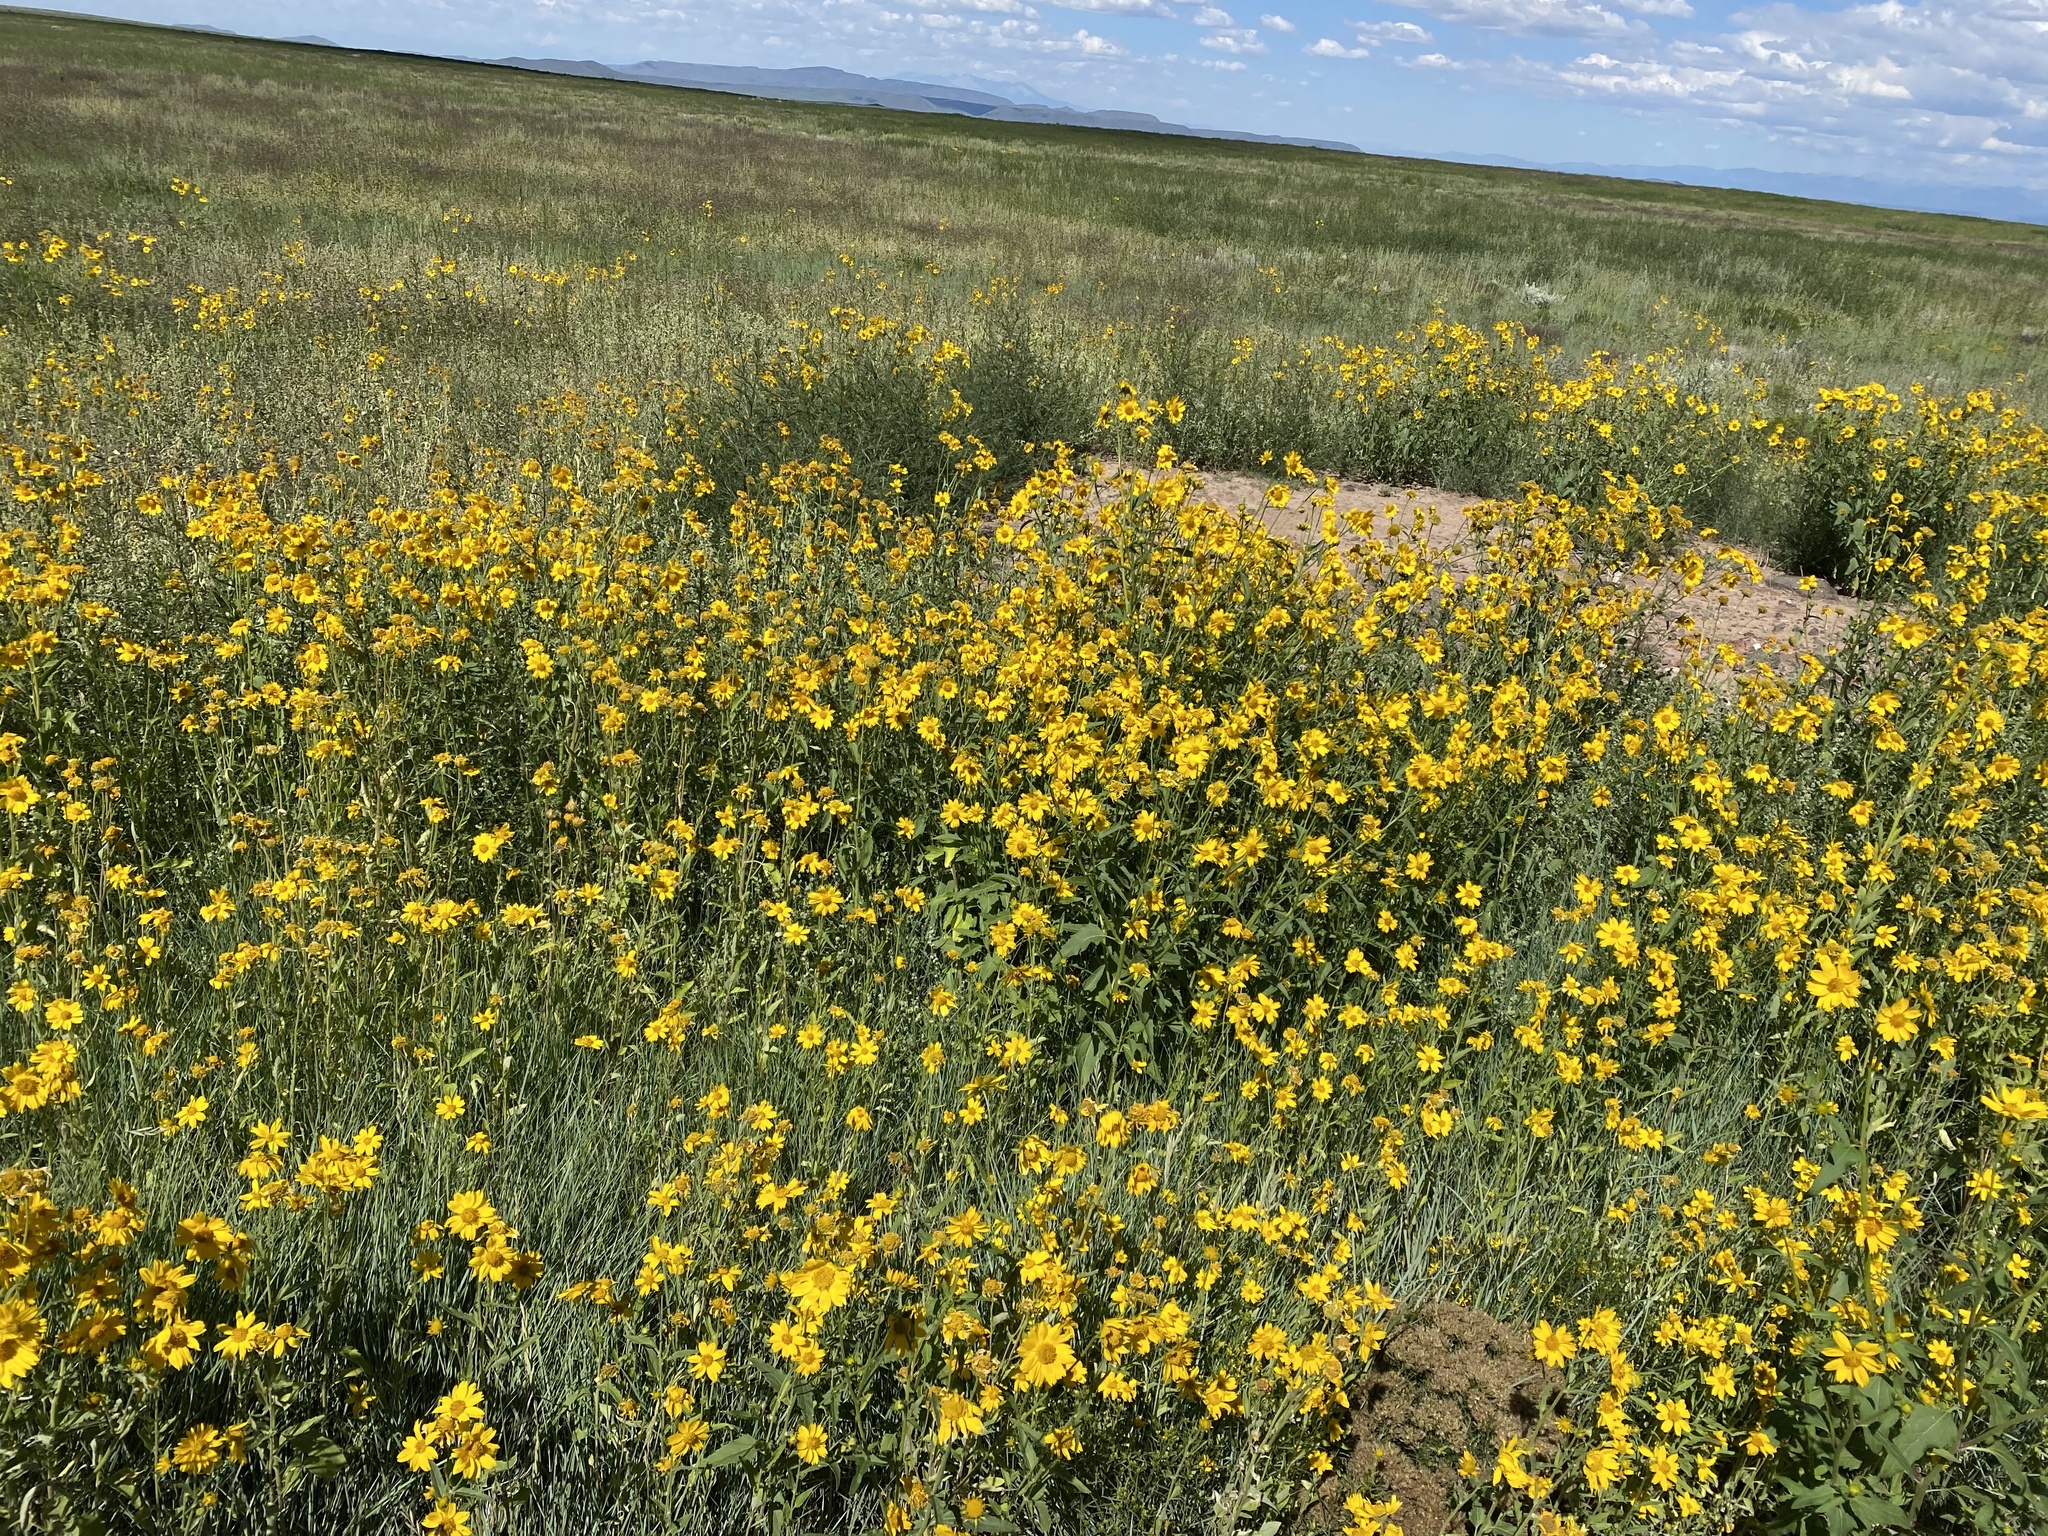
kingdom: Plantae
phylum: Tracheophyta
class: Magnoliopsida
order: Asterales
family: Asteraceae
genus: Verbesina
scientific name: Verbesina encelioides
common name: Golden crownbeard
